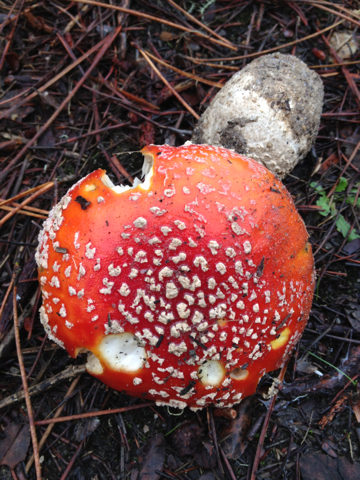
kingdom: Fungi
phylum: Basidiomycota
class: Agaricomycetes
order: Agaricales
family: Amanitaceae
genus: Amanita
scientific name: Amanita muscaria
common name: Fly agaric
